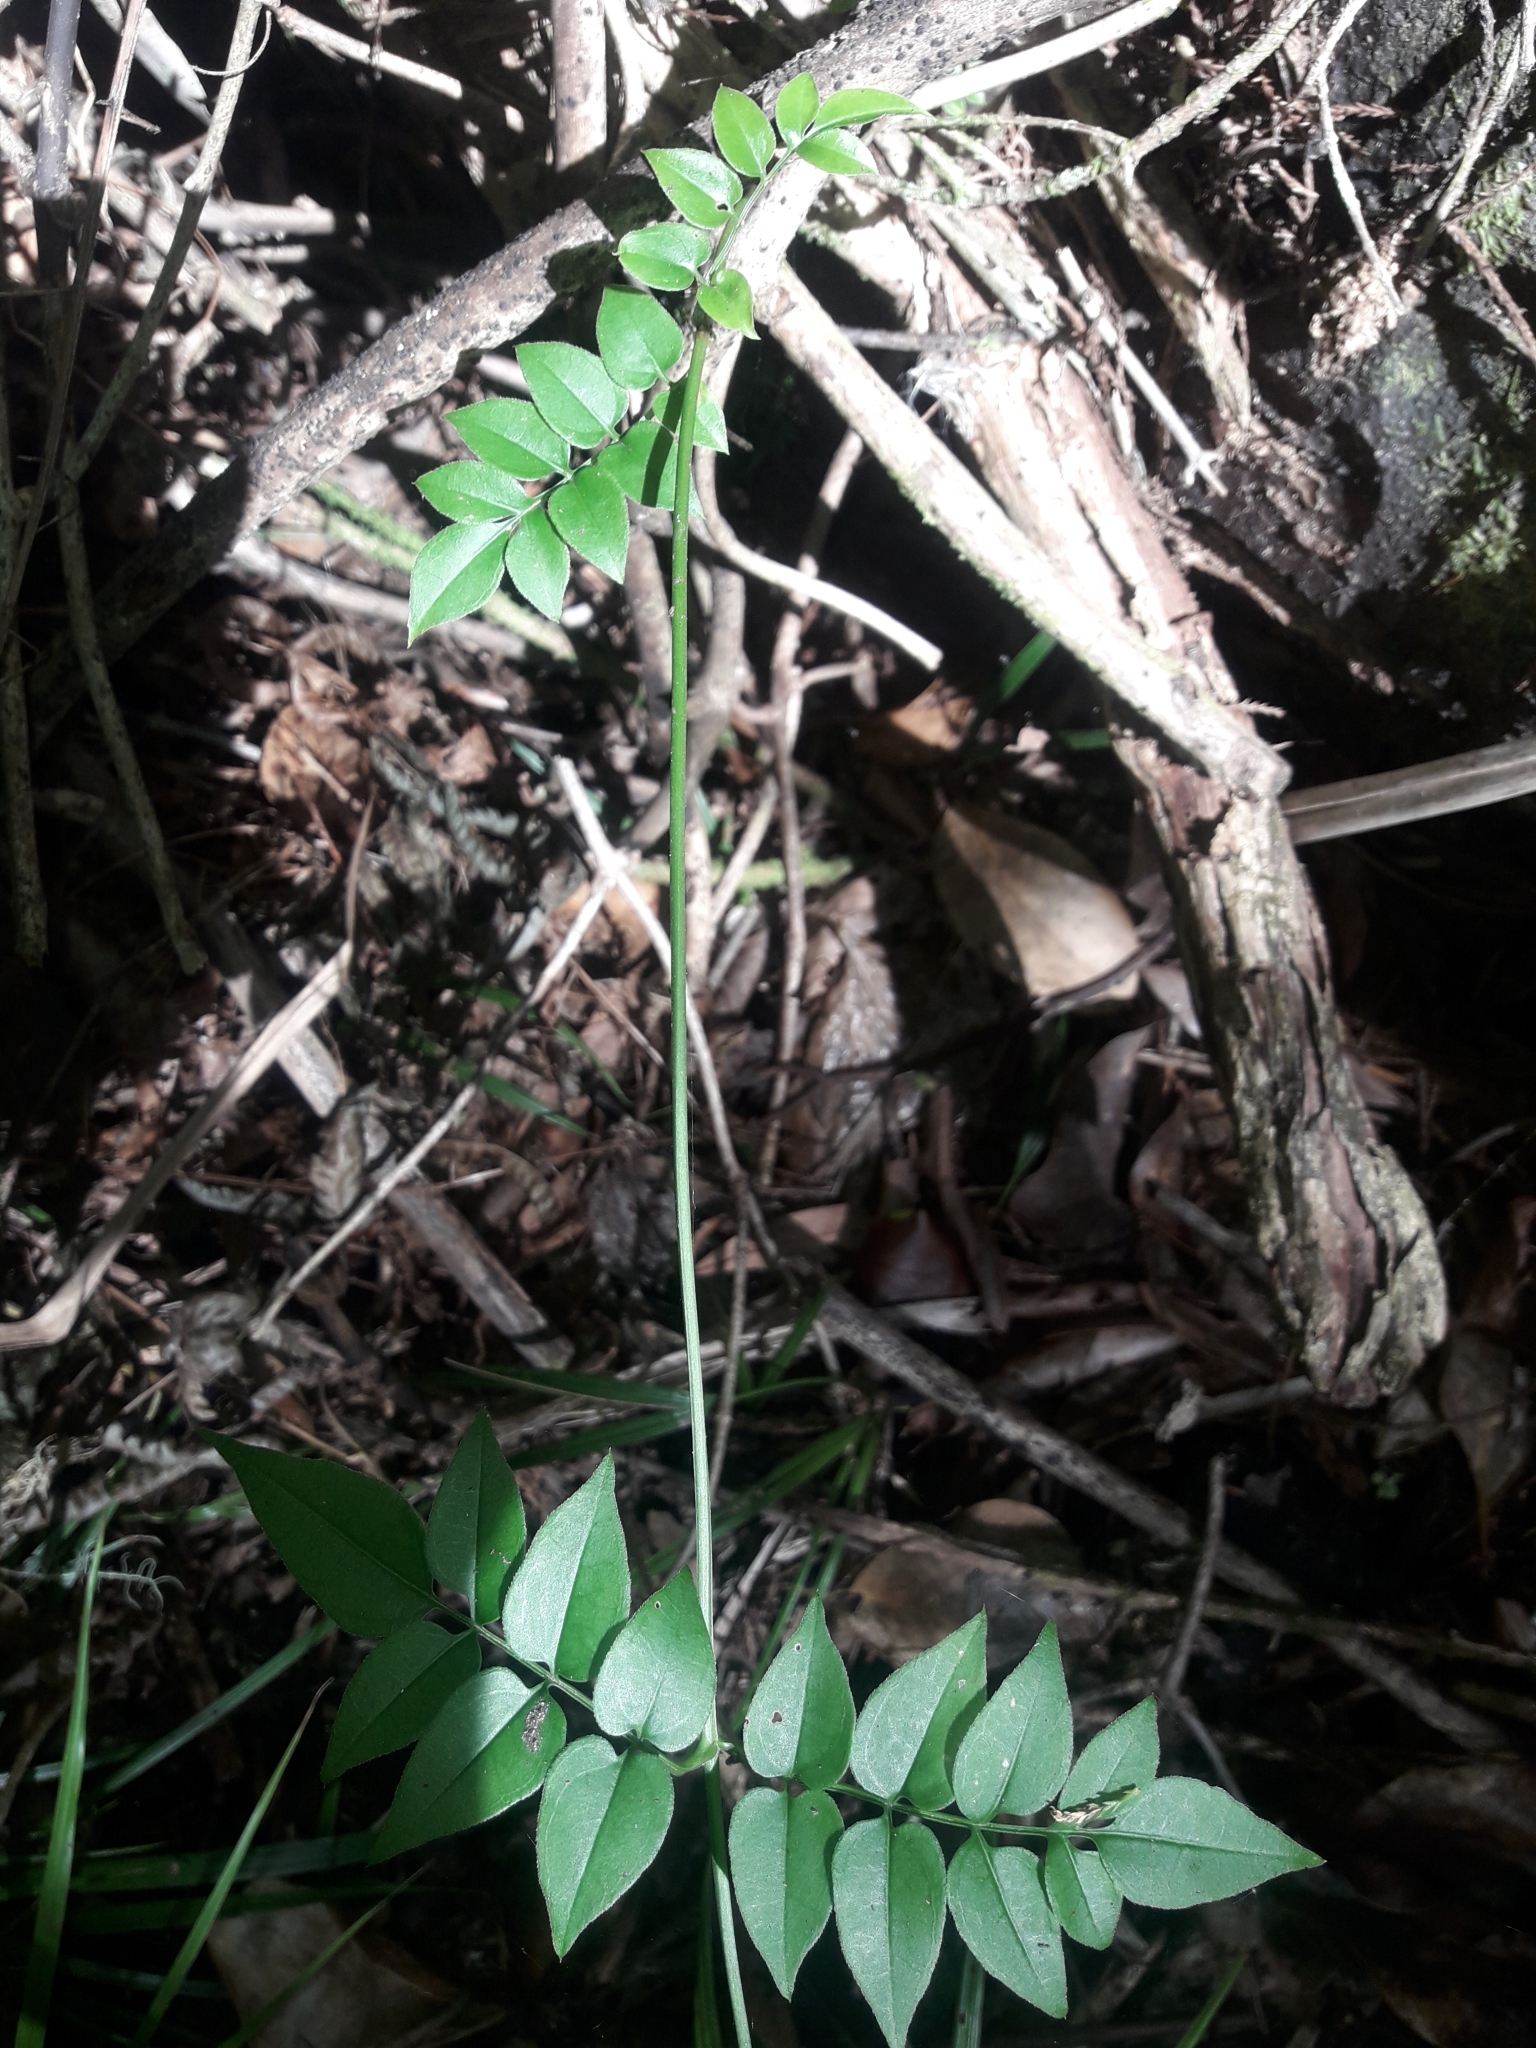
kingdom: Plantae
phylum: Tracheophyta
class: Magnoliopsida
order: Lamiales
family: Oleaceae
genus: Jasminum
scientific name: Jasminum polyanthum
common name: Pink jasmine
